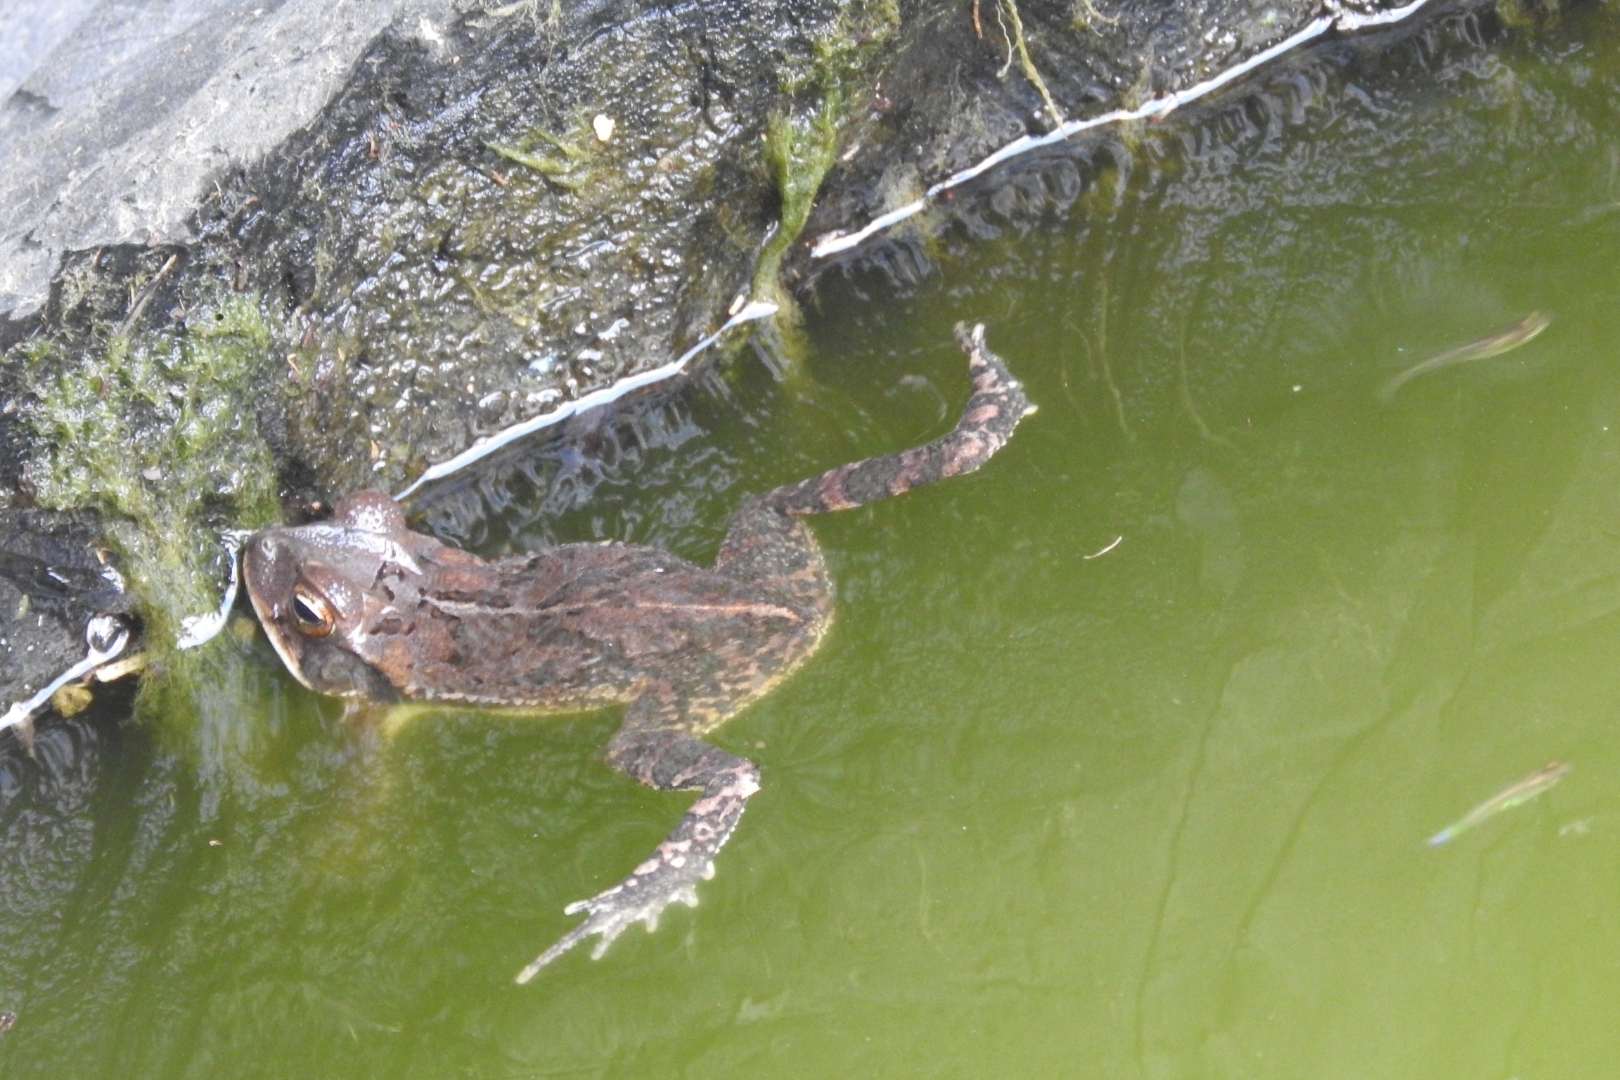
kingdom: Animalia
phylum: Chordata
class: Amphibia
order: Anura
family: Bufonidae
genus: Incilius
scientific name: Incilius valliceps
